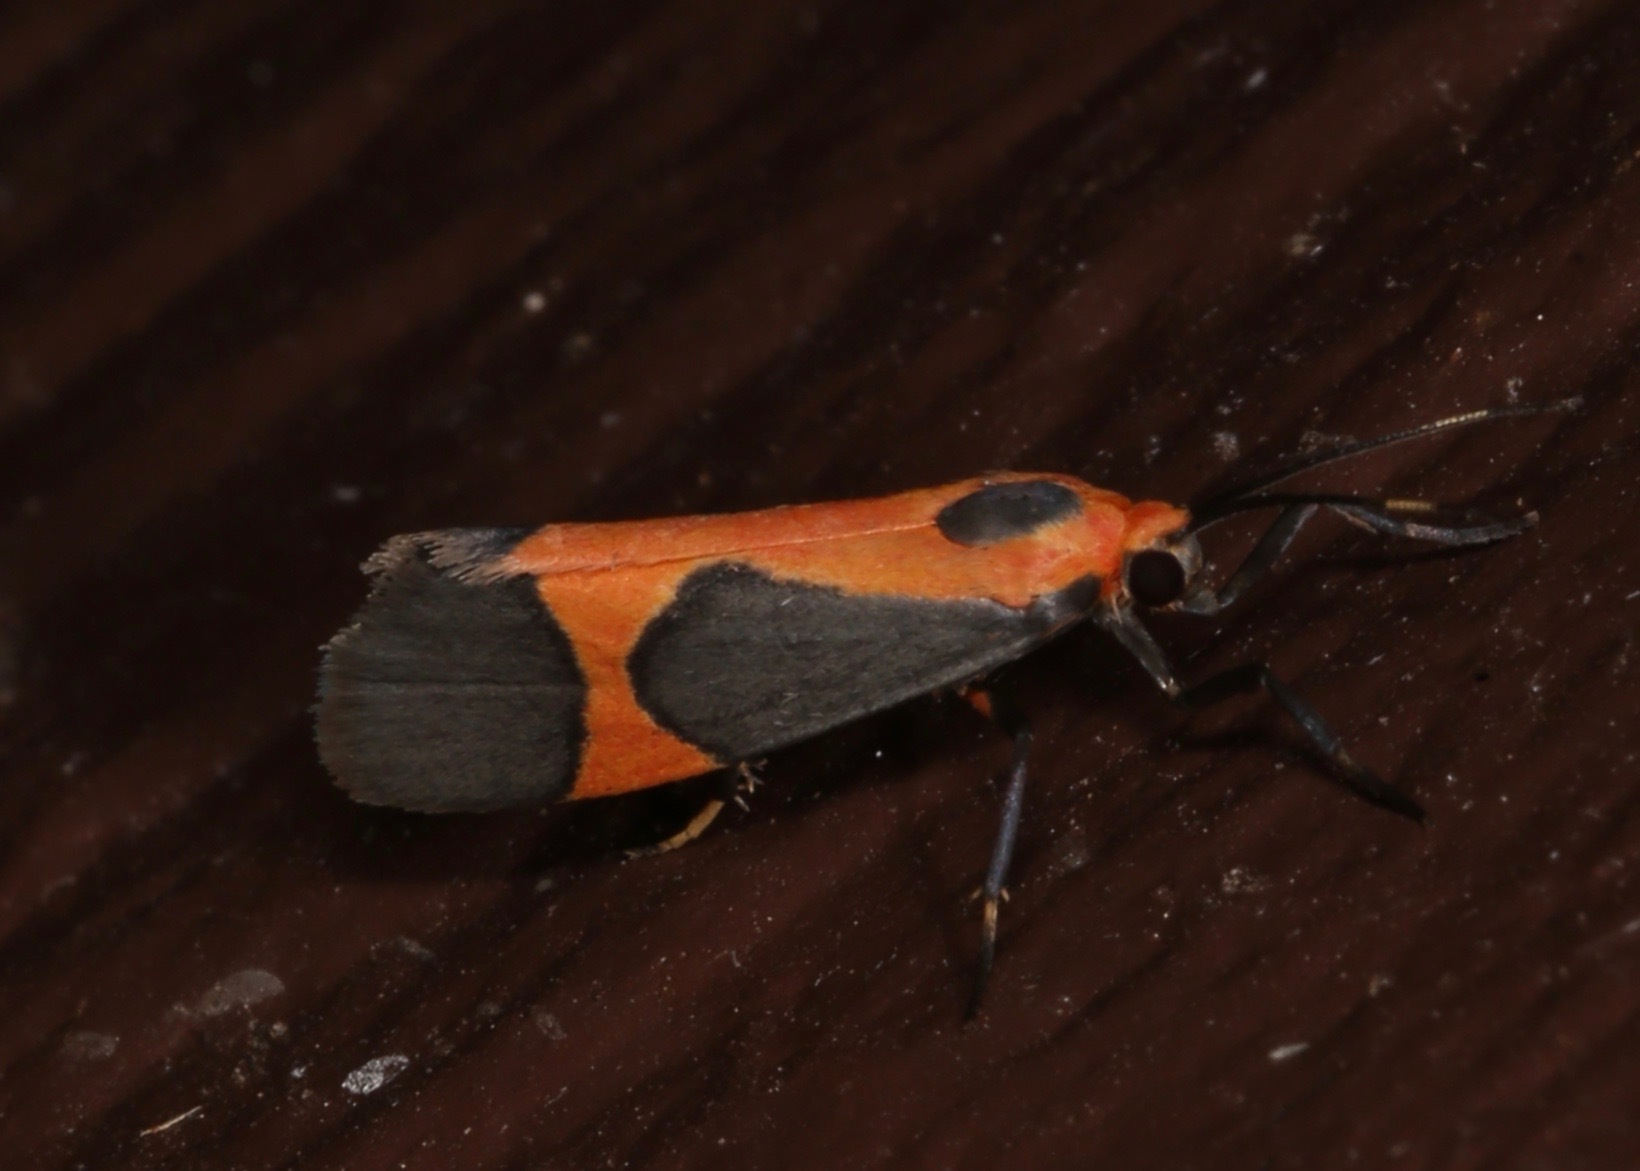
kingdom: Animalia
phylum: Arthropoda
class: Insecta
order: Lepidoptera
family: Erebidae
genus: Cisthene
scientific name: Cisthene martini
